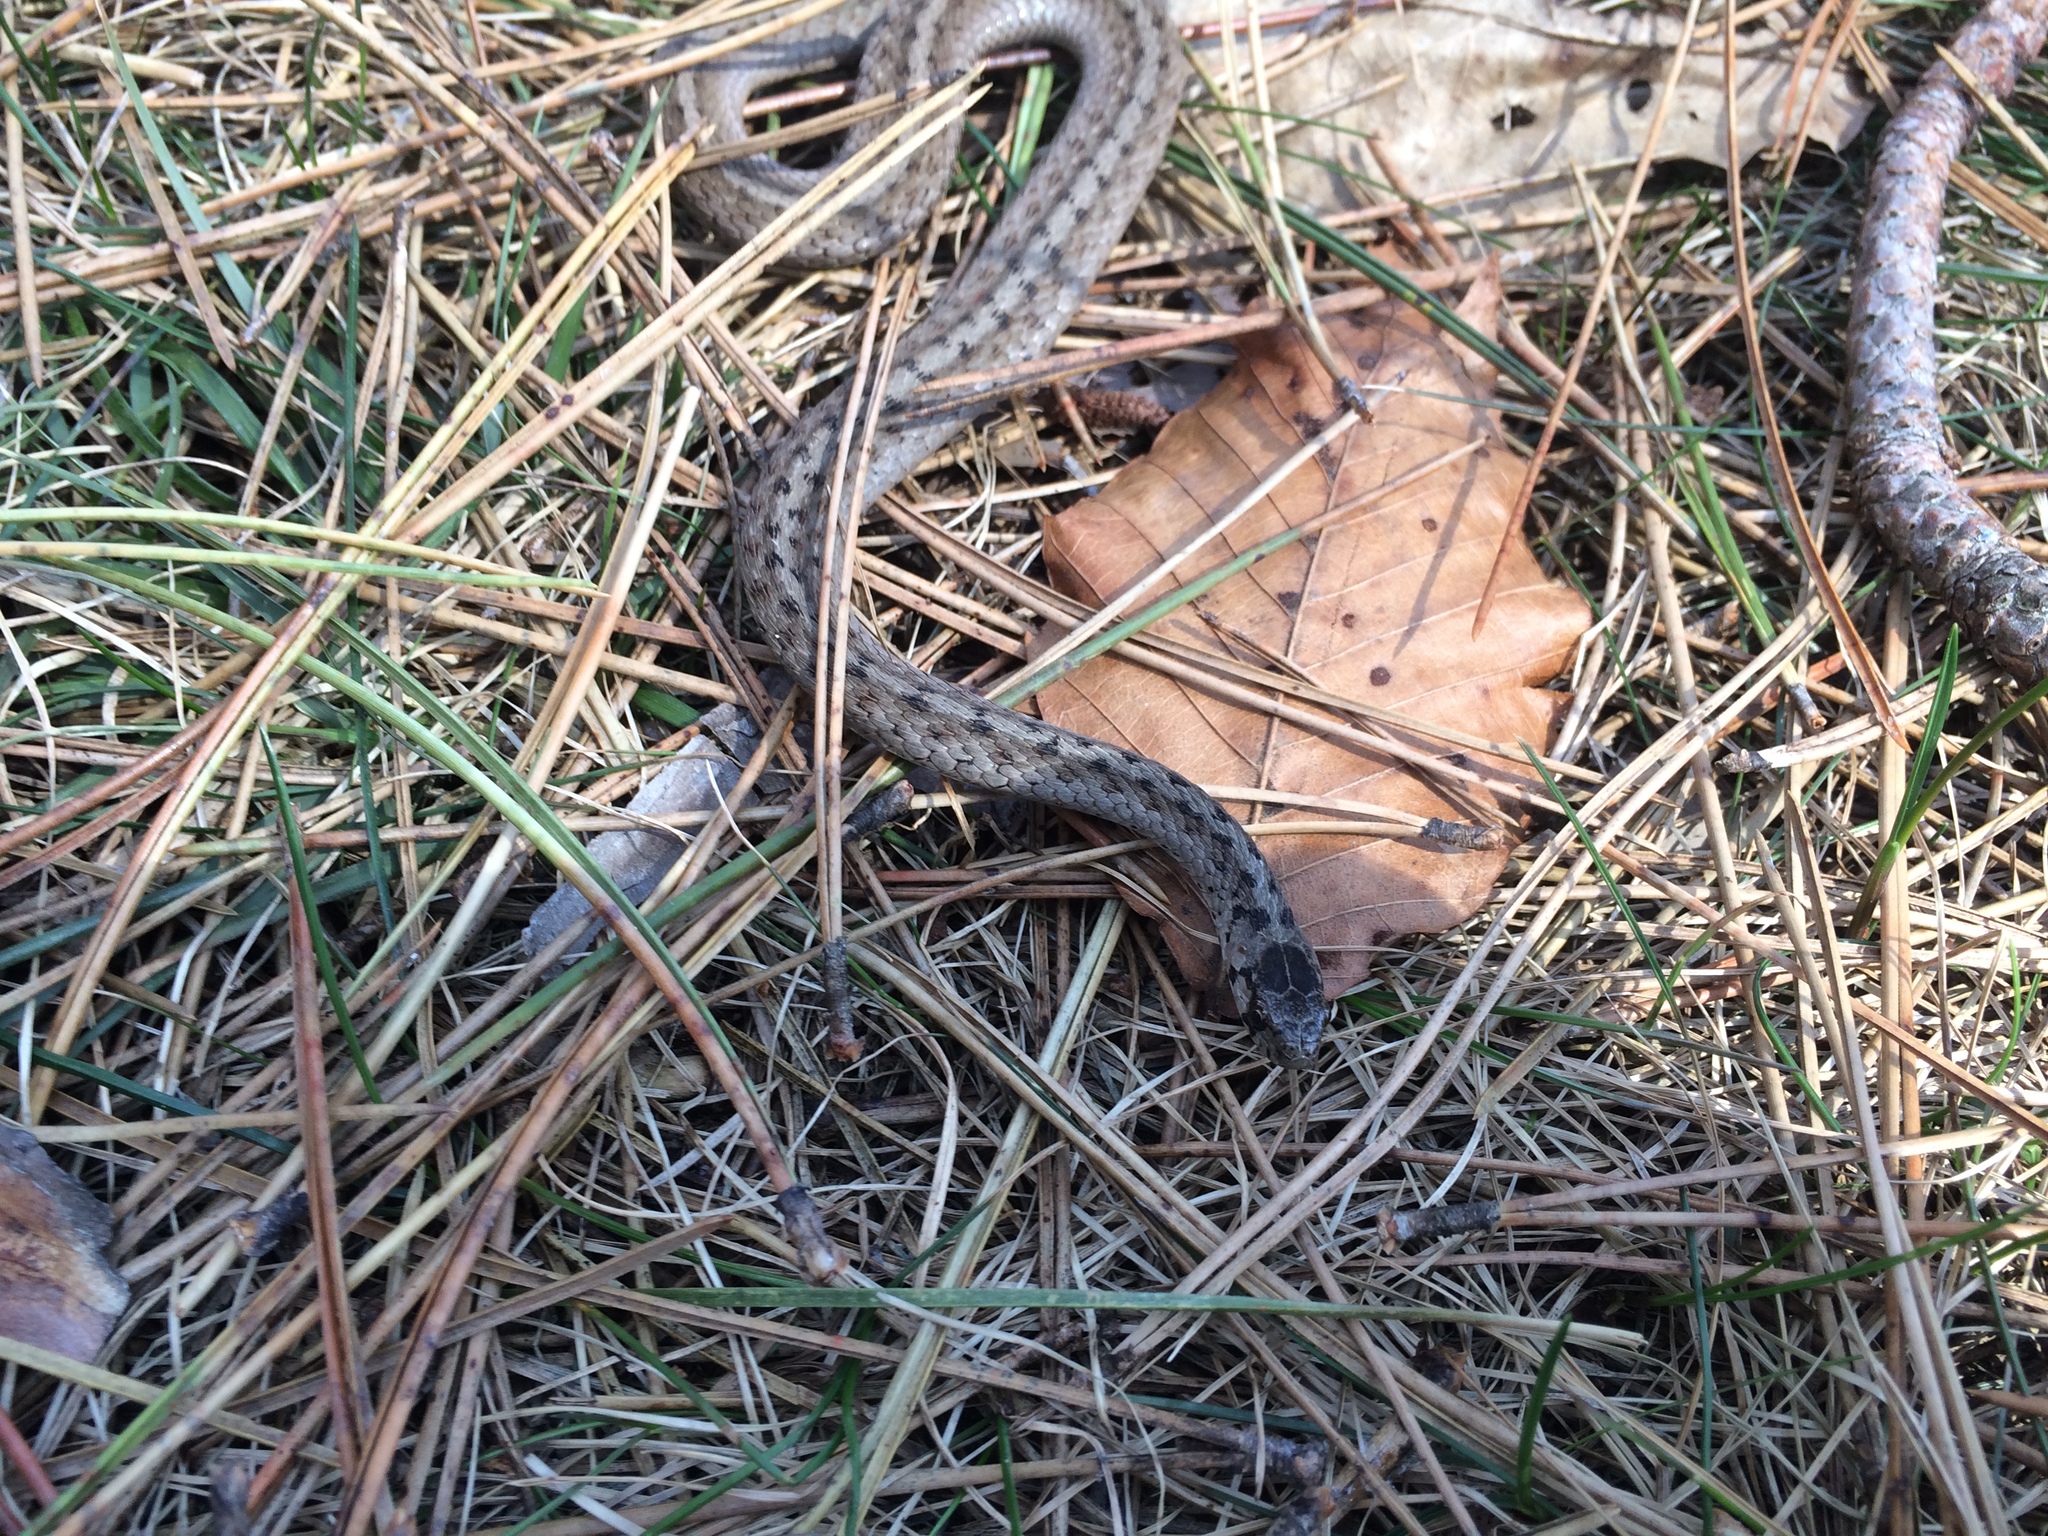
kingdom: Animalia
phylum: Chordata
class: Squamata
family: Colubridae
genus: Storeria
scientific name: Storeria dekayi
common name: (dekay’s) brown snake
